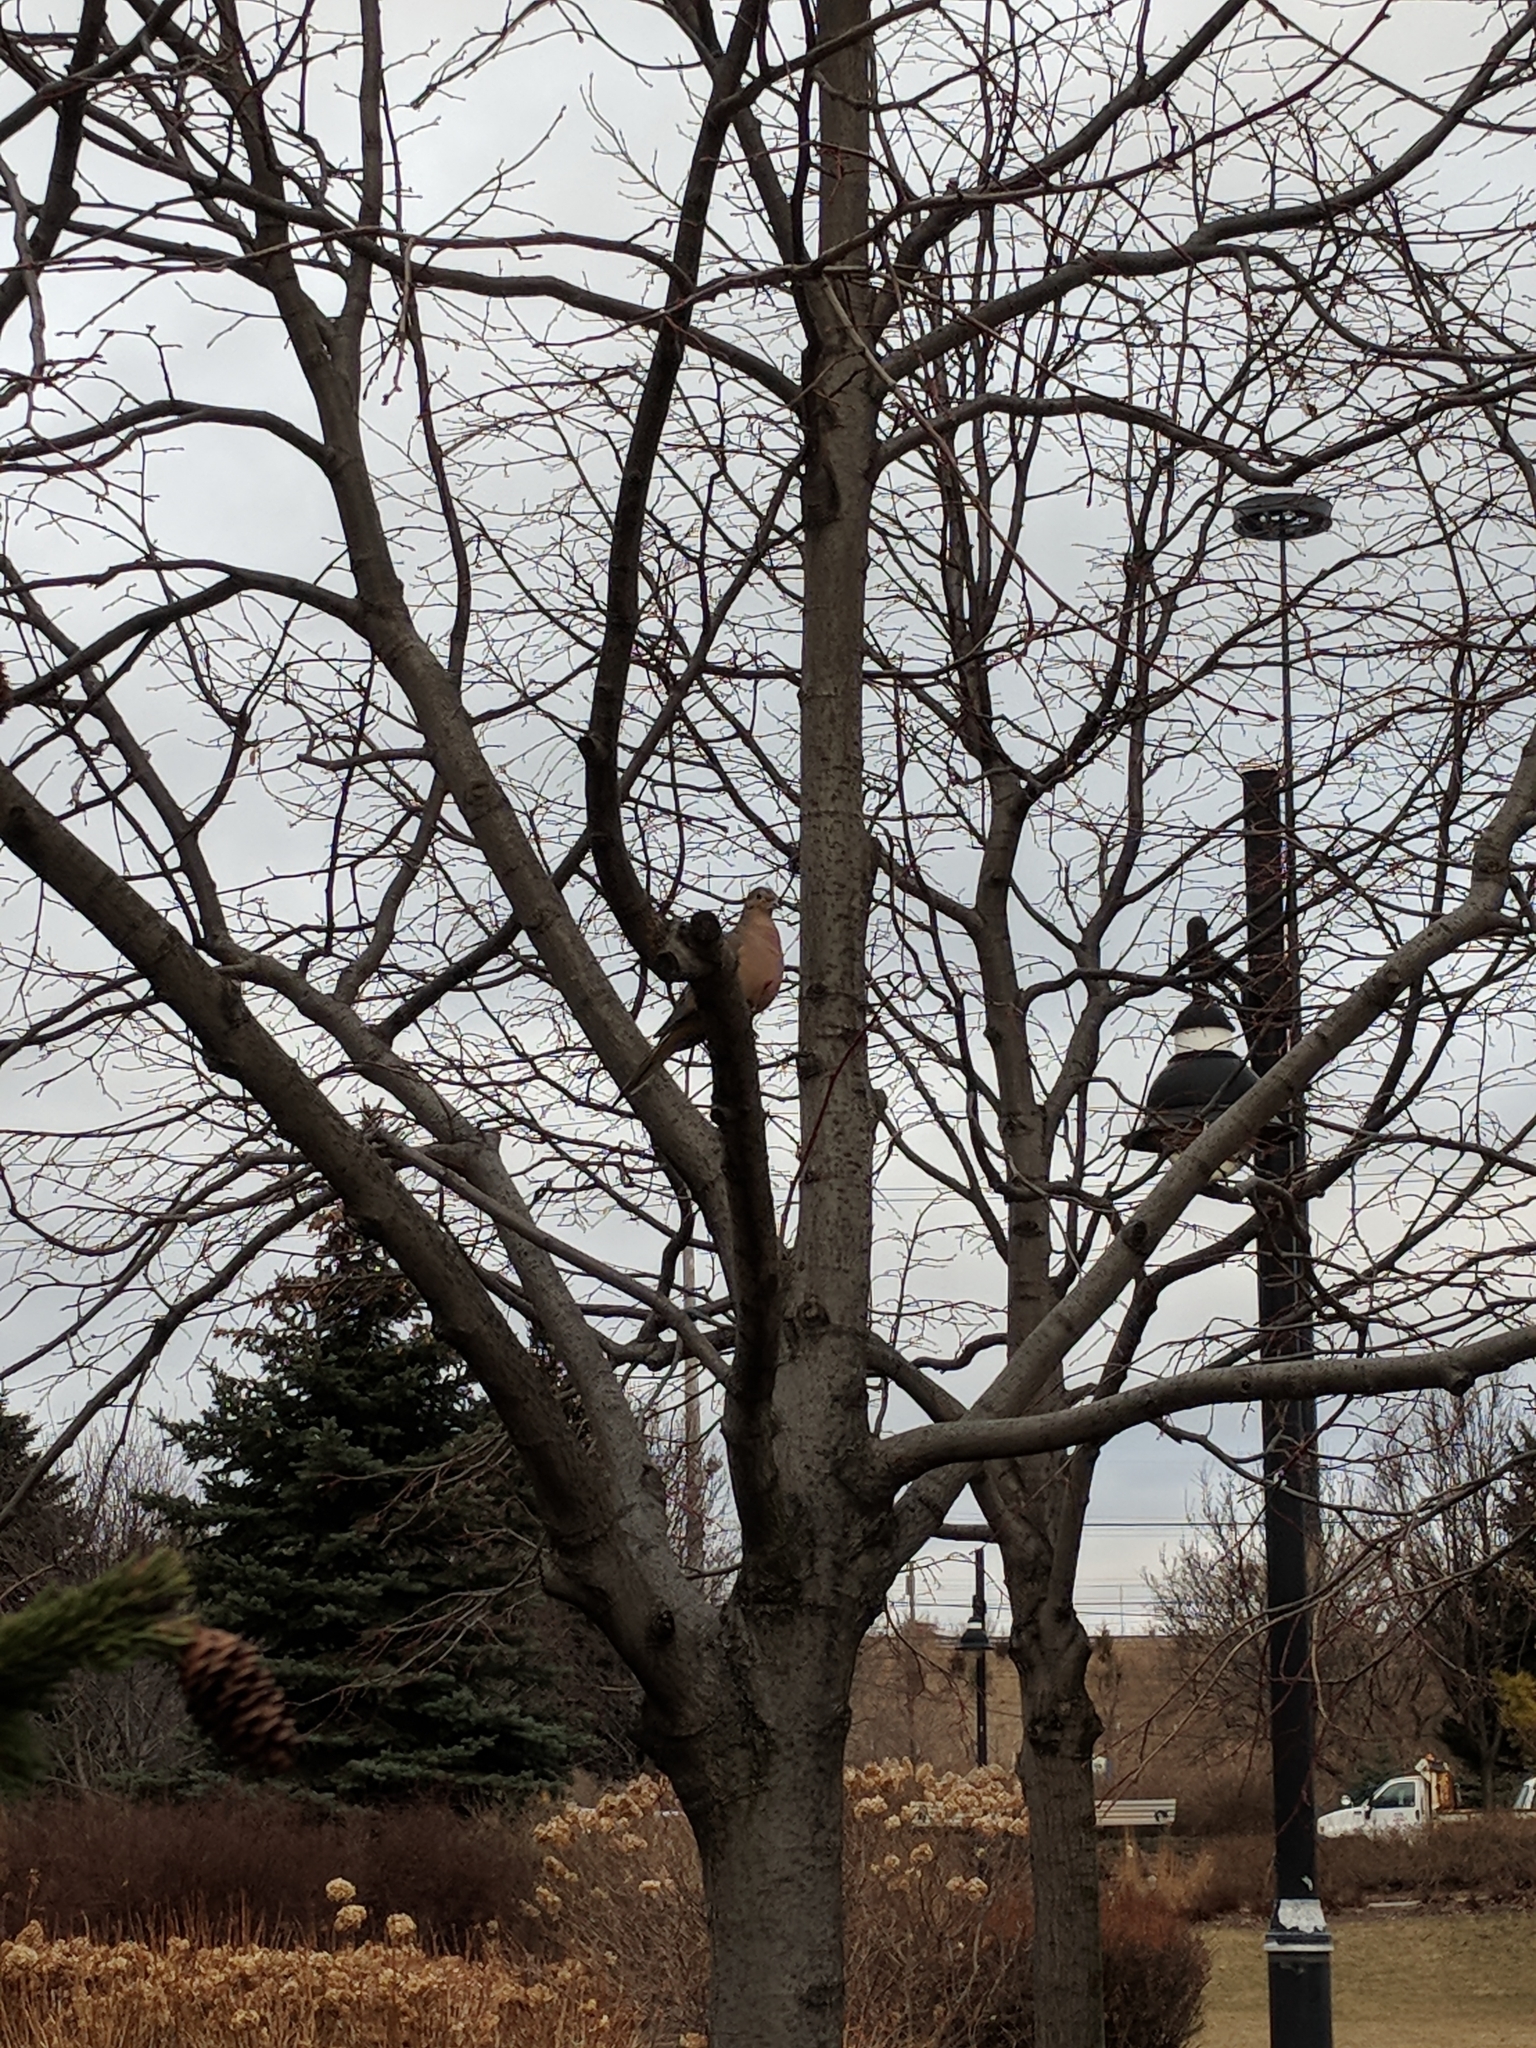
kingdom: Animalia
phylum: Chordata
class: Aves
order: Columbiformes
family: Columbidae
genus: Zenaida
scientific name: Zenaida macroura
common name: Mourning dove
